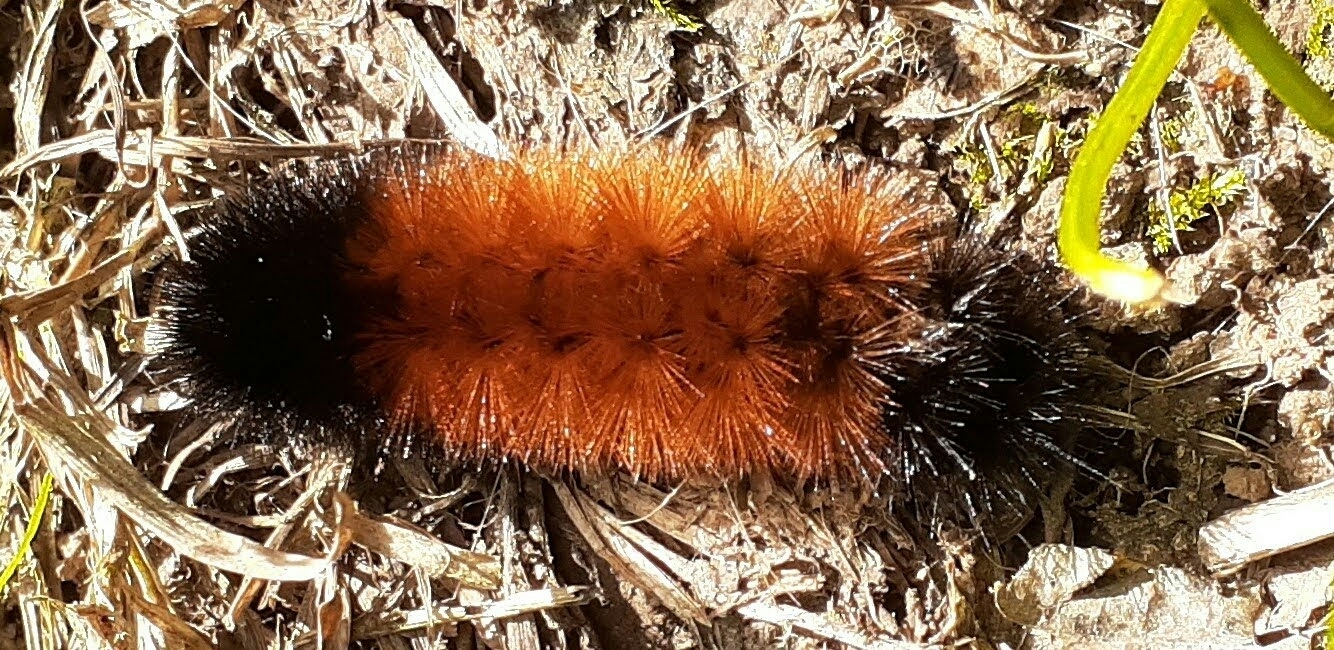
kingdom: Animalia
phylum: Arthropoda
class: Insecta
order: Lepidoptera
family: Erebidae
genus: Pyrrharctia
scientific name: Pyrrharctia isabella
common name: Isabella tiger moth
